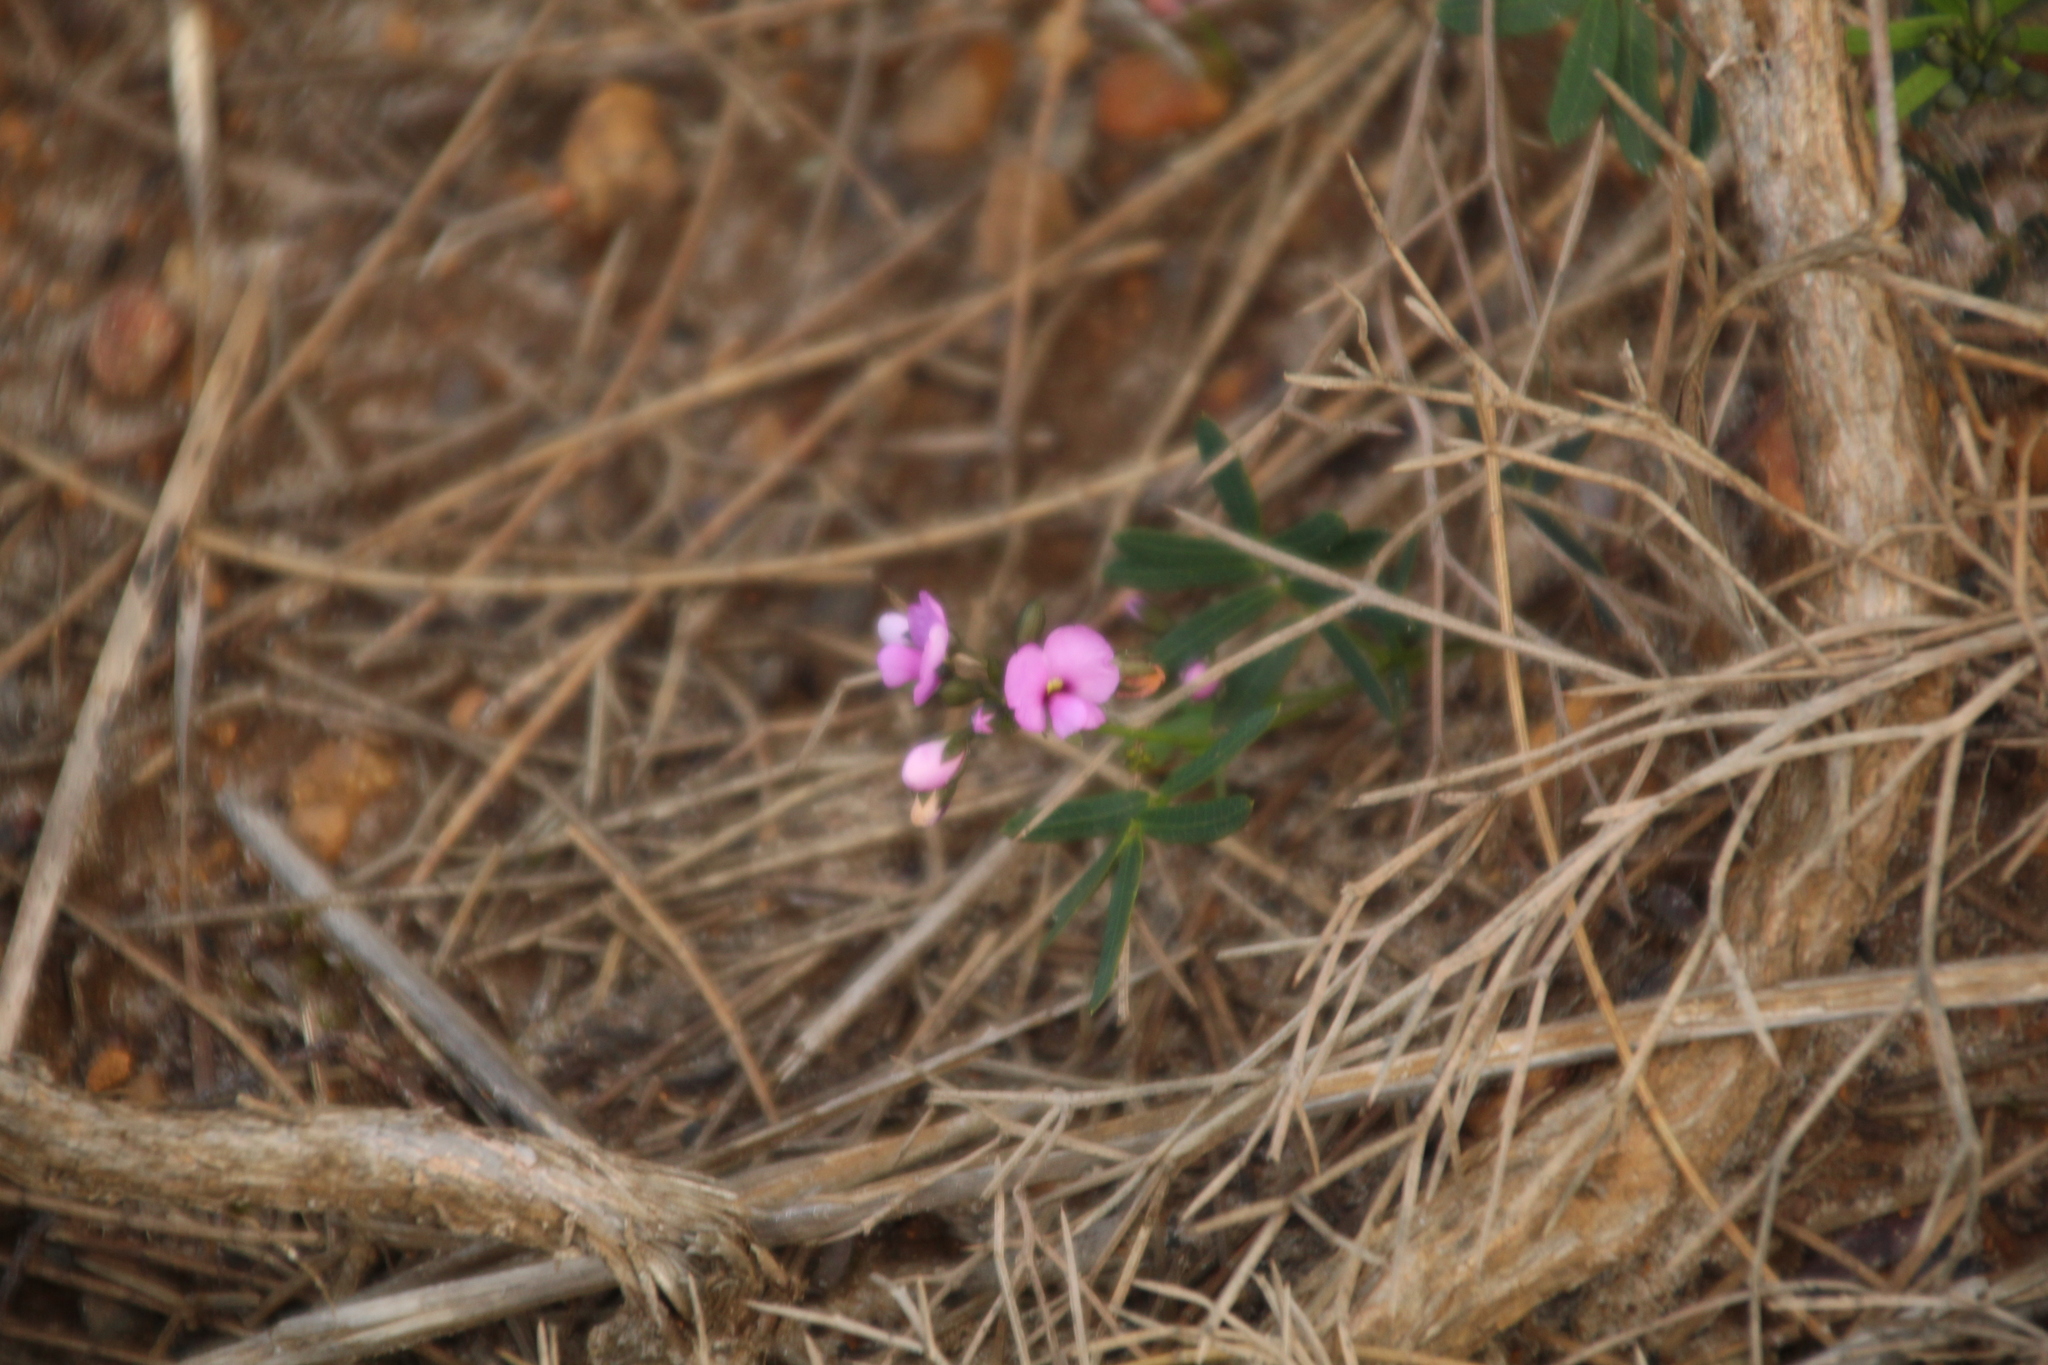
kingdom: Plantae
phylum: Tracheophyta
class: Magnoliopsida
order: Fabales
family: Fabaceae
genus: Gompholobium
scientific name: Gompholobium knightianum
